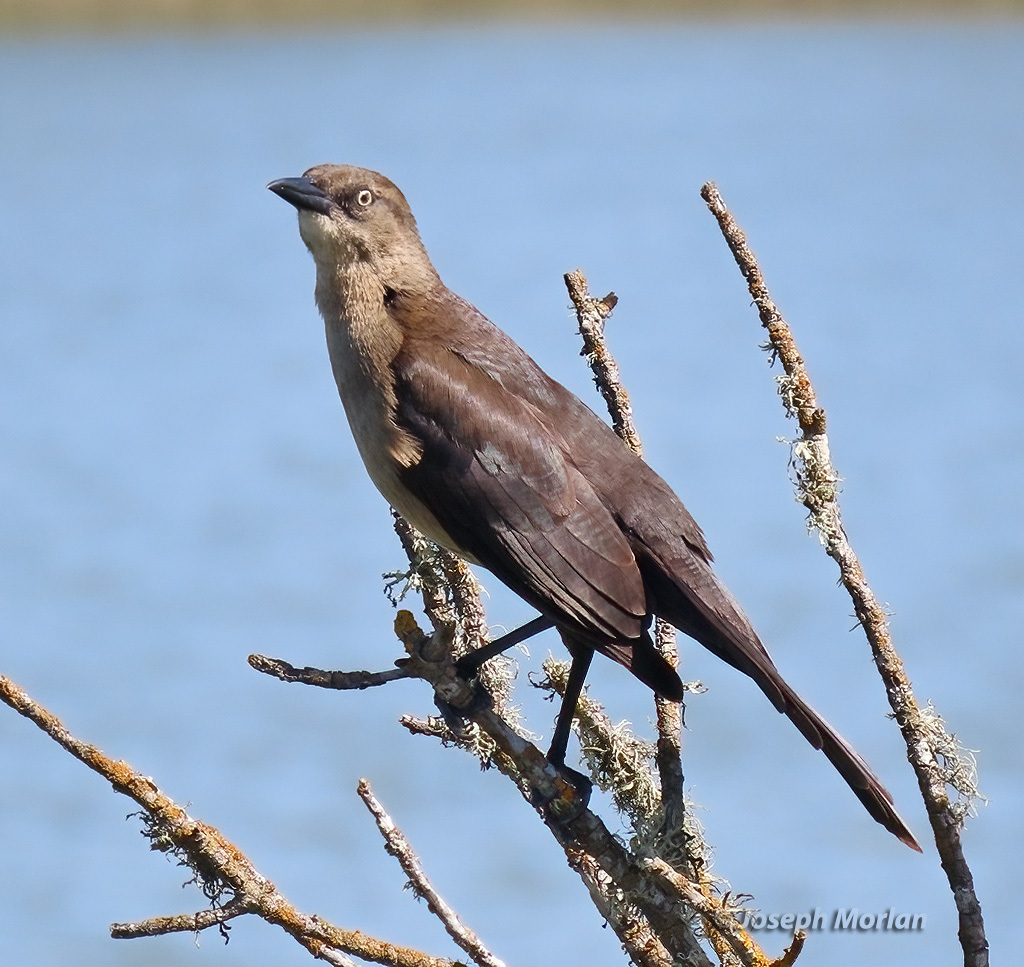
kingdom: Animalia
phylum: Chordata
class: Aves
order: Passeriformes
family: Icteridae
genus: Quiscalus
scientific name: Quiscalus mexicanus
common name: Great-tailed grackle
